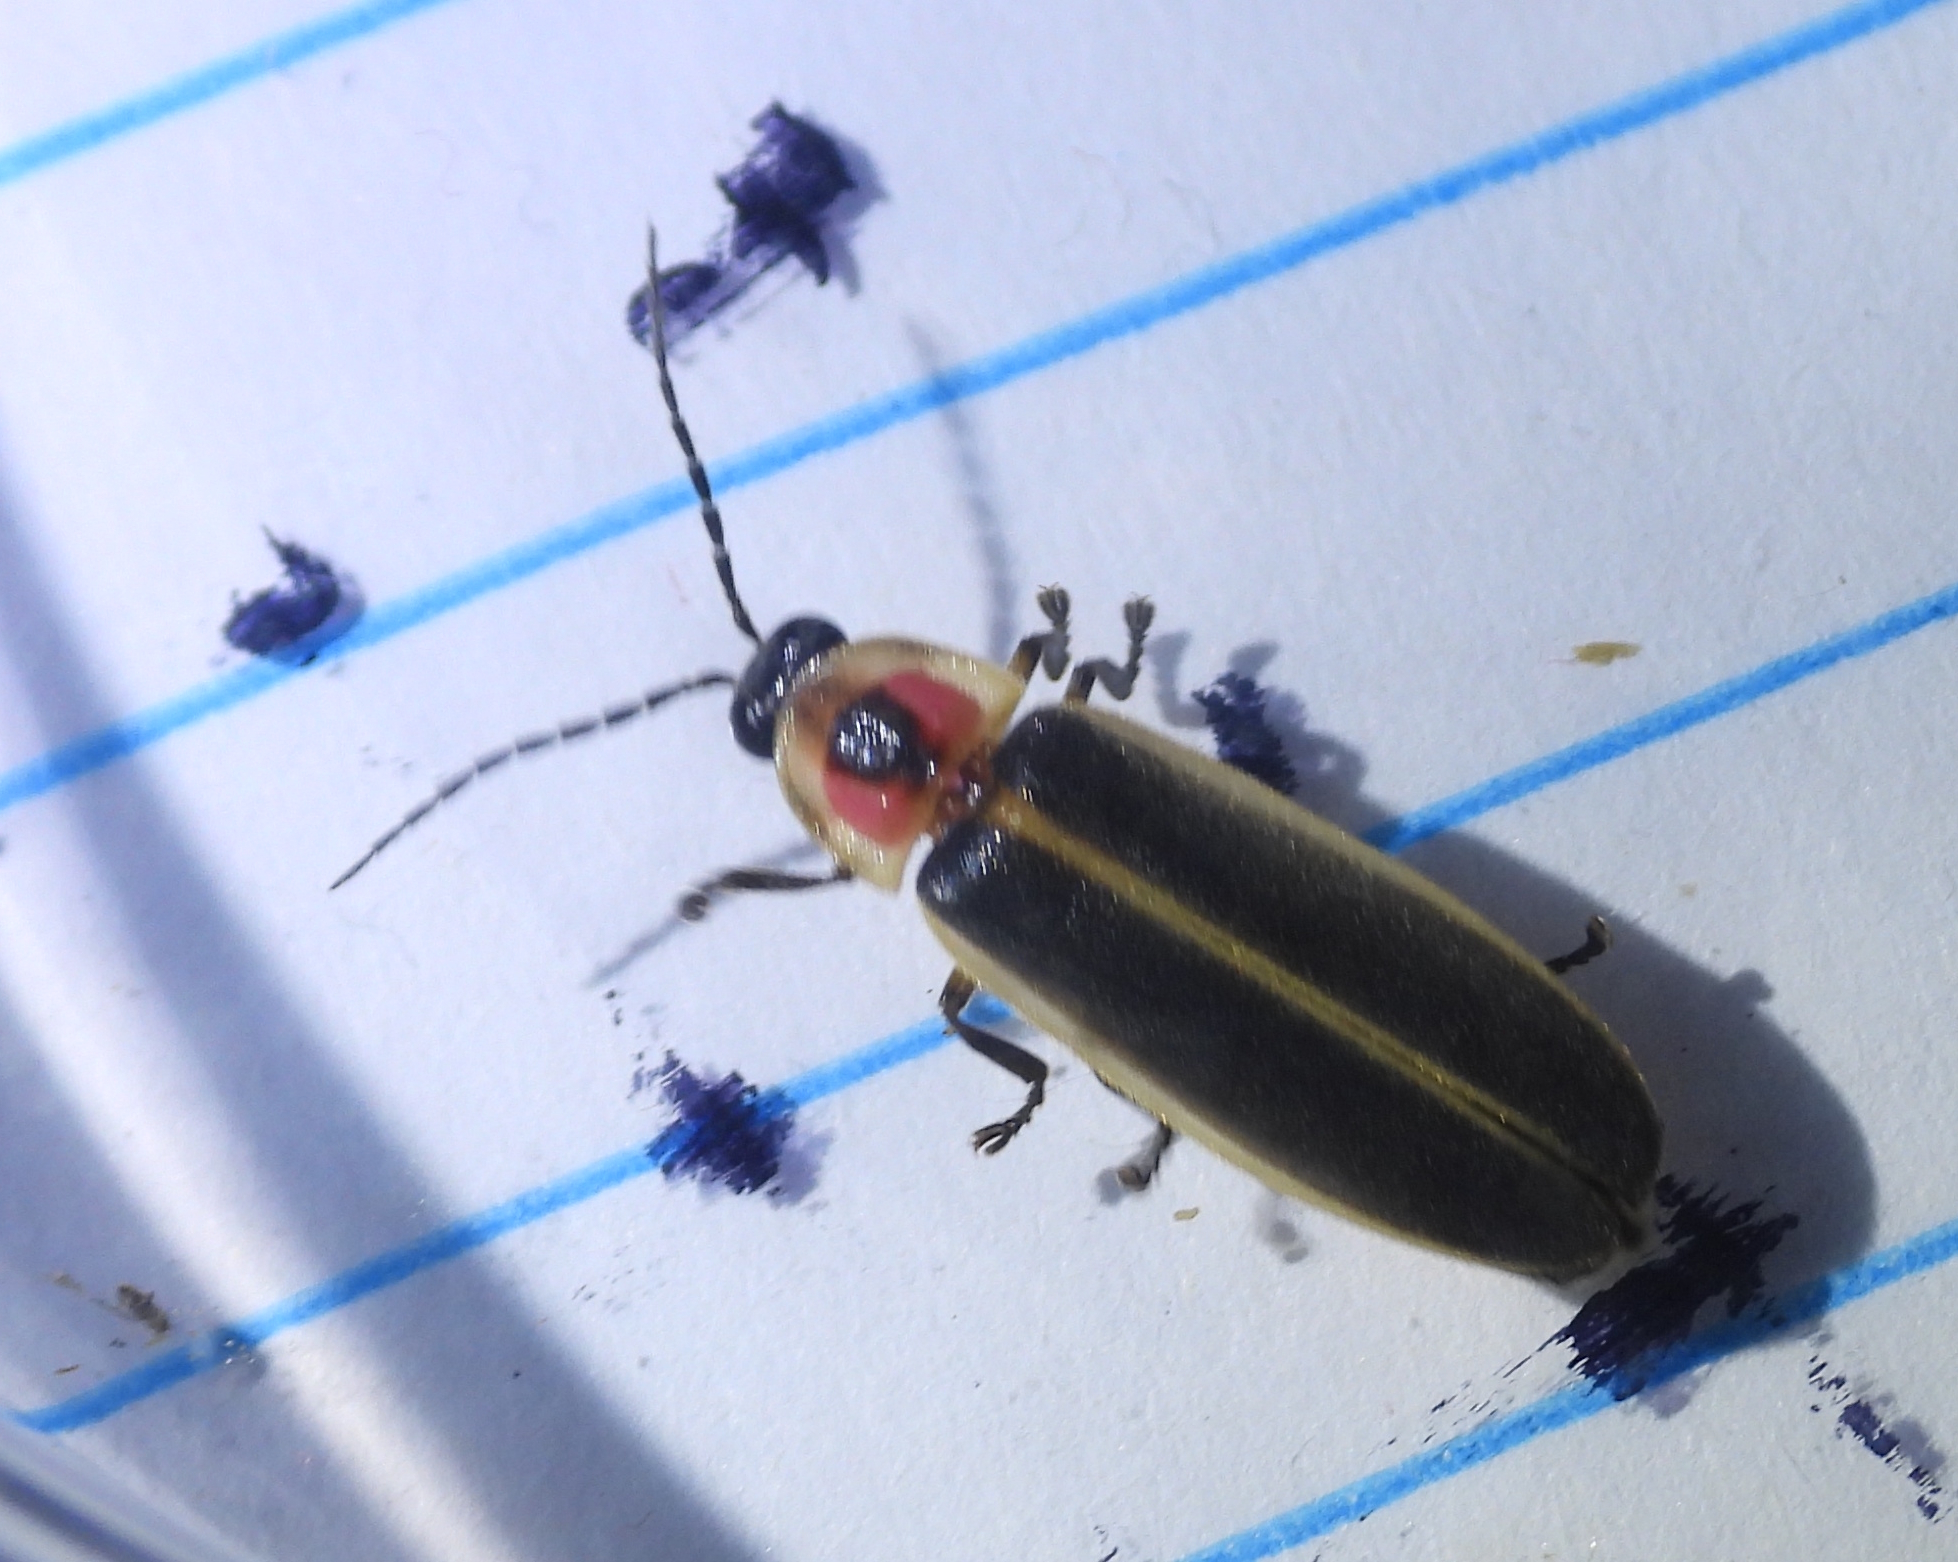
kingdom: Animalia
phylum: Arthropoda
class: Insecta
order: Coleoptera
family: Lampyridae
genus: Photinus
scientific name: Photinus pyralis
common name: Big dipper firefly
